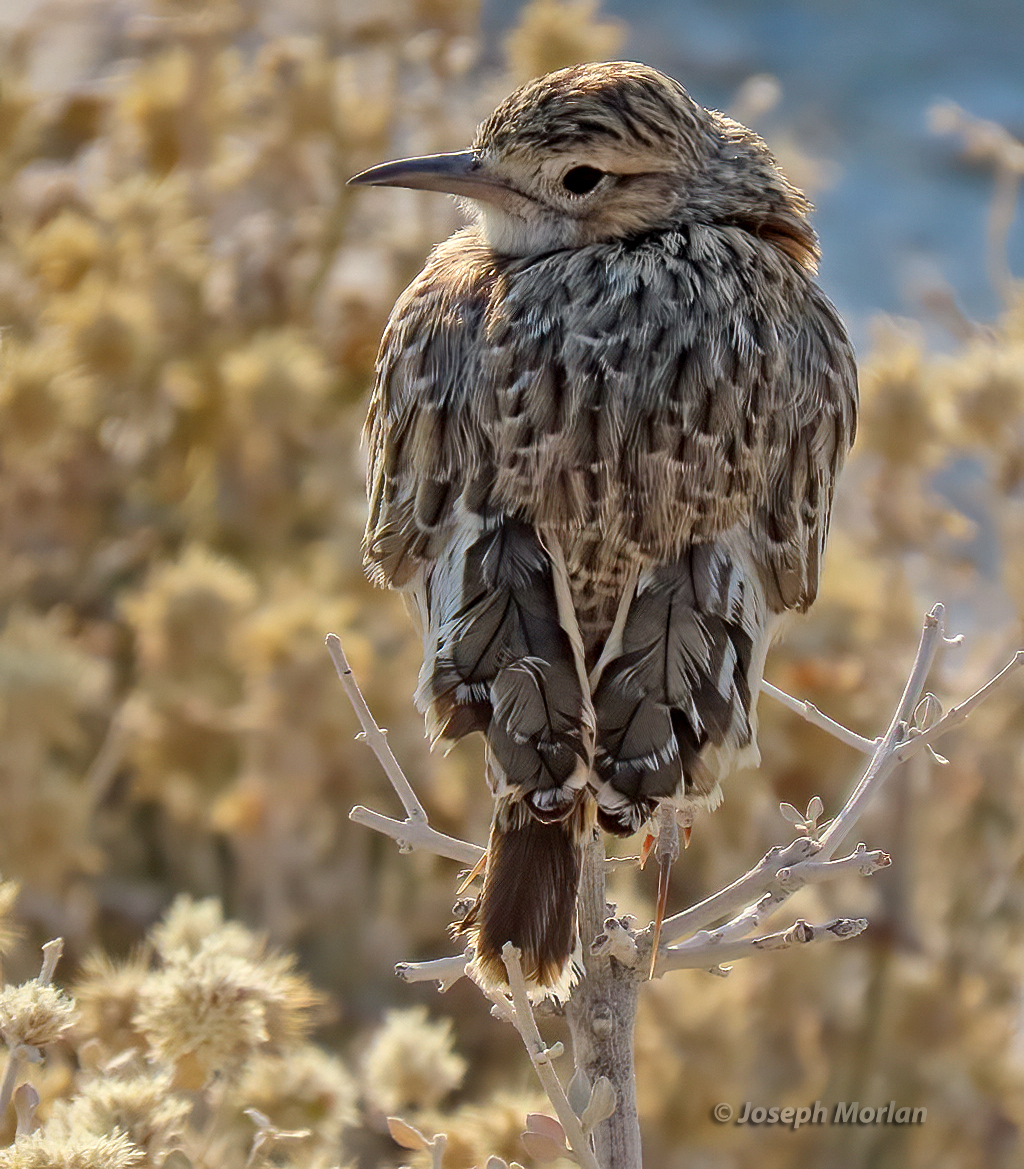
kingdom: Animalia
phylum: Chordata
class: Aves
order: Passeriformes
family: Alaudidae
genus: Chersomanes
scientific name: Chersomanes albofasciata
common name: Spike-heeled lark
